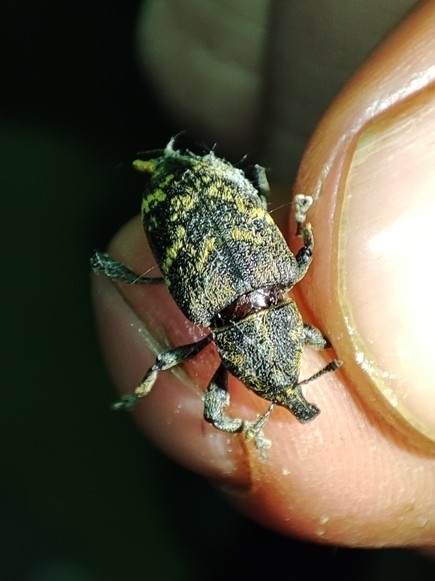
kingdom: Animalia
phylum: Arthropoda
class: Insecta
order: Coleoptera
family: Curculionidae
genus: Hylobius
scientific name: Hylobius abietis
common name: Large pine weevil
